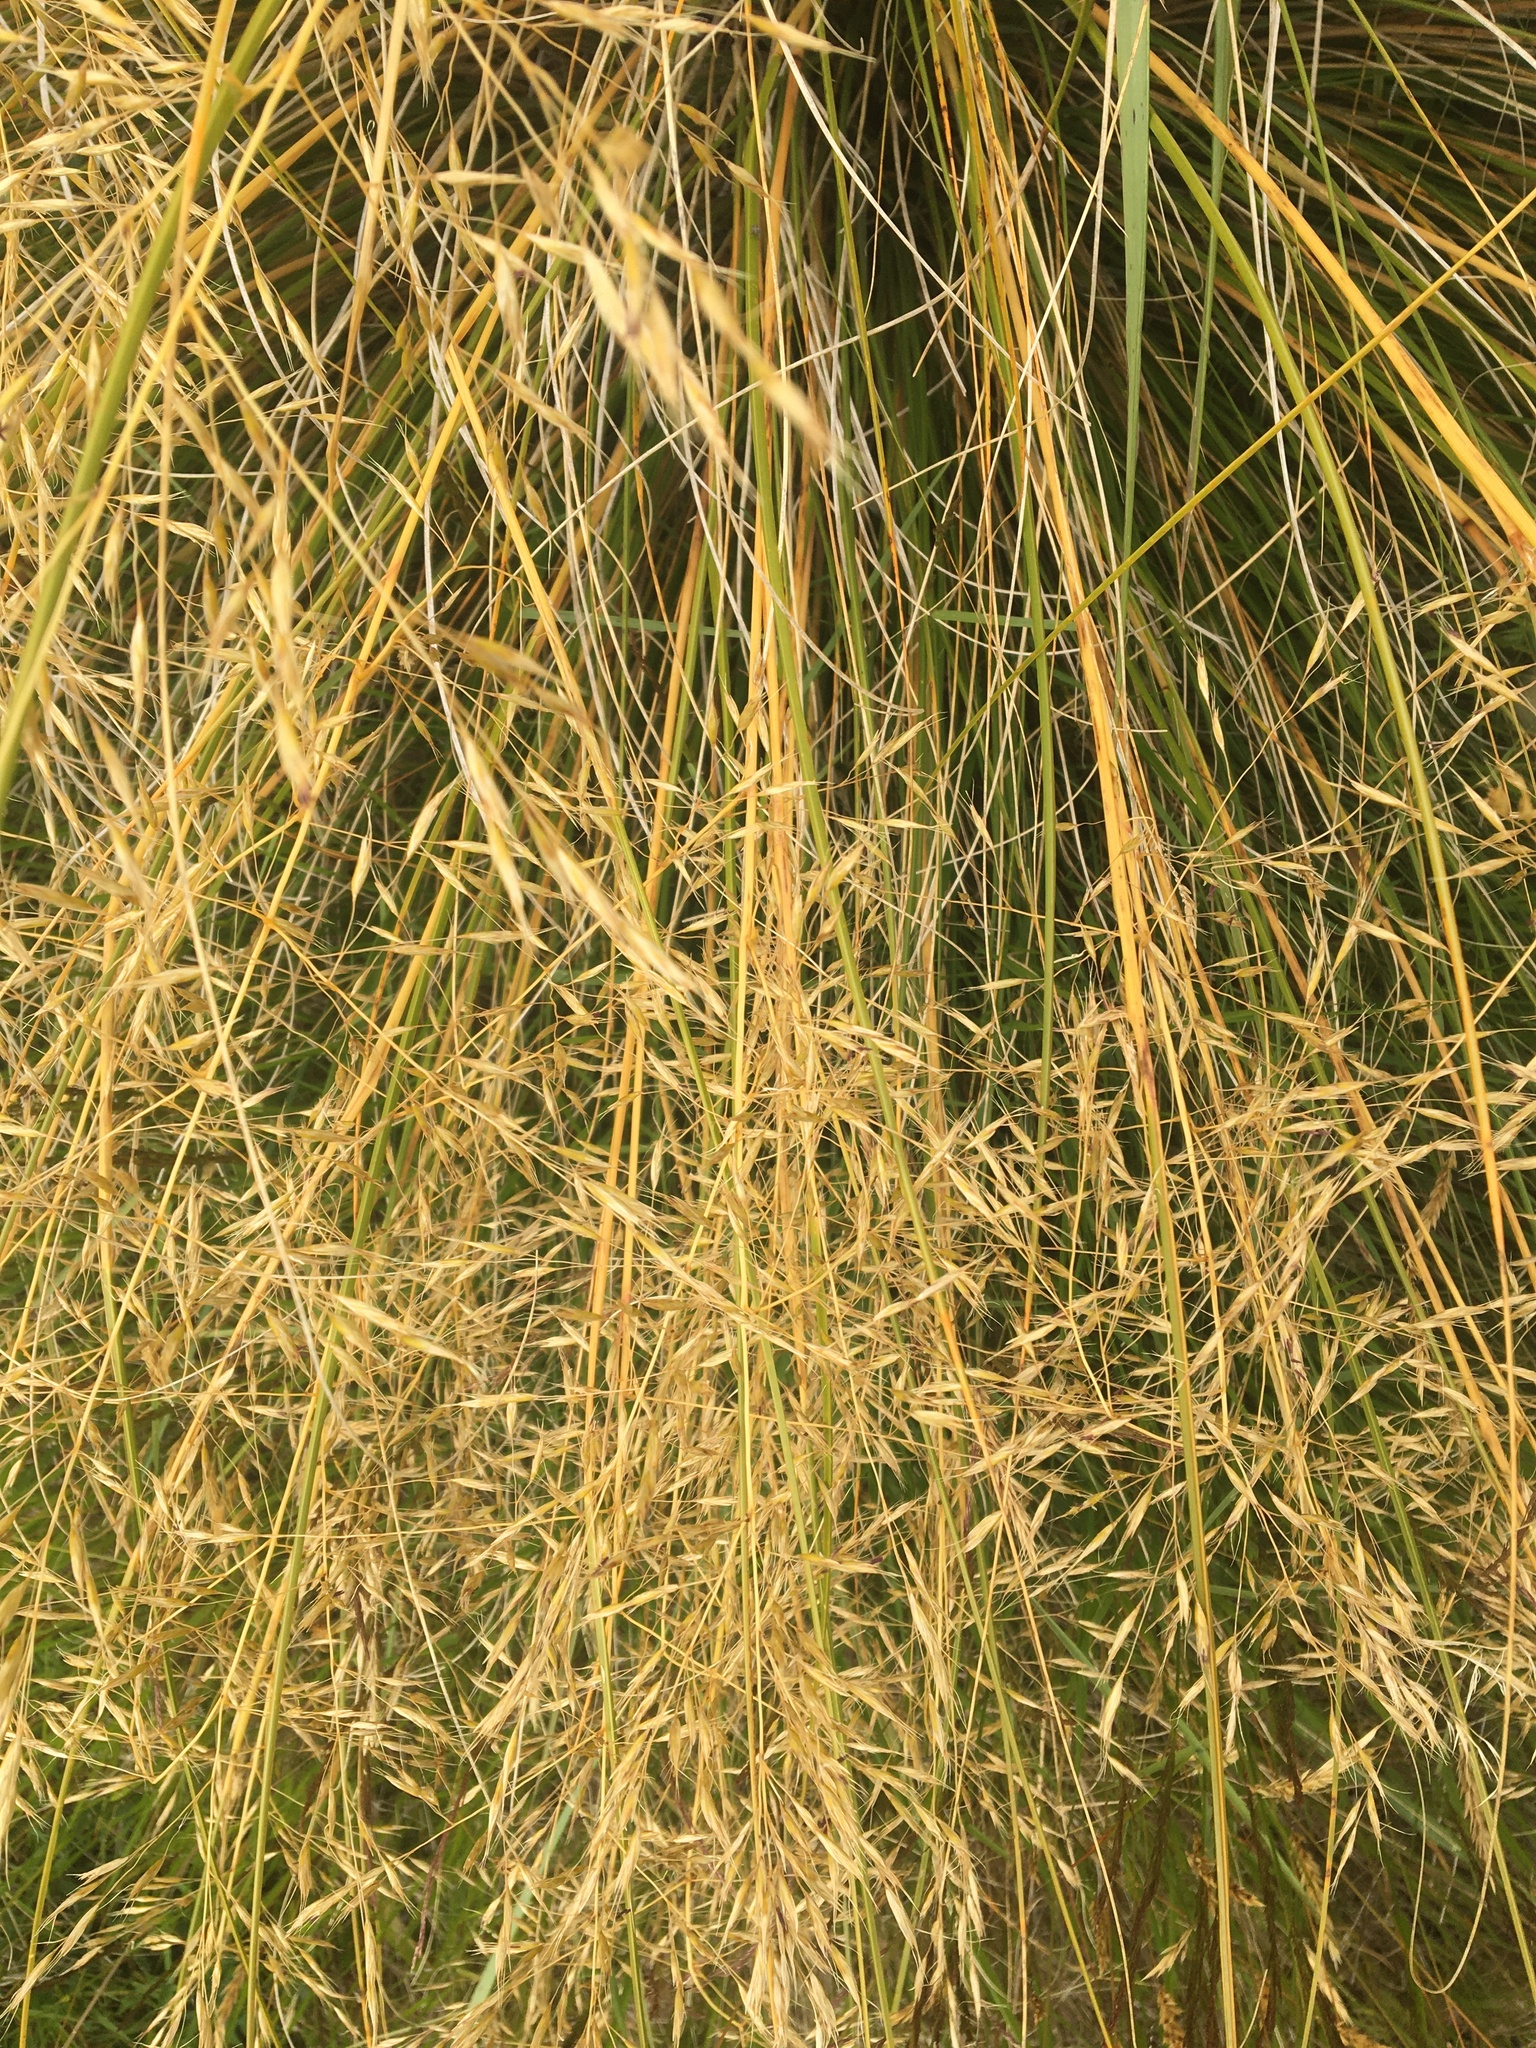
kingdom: Plantae
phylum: Tracheophyta
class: Liliopsida
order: Poales
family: Poaceae
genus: Chionochloa
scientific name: Chionochloa rigida
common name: Narrow leaved snow tussock
